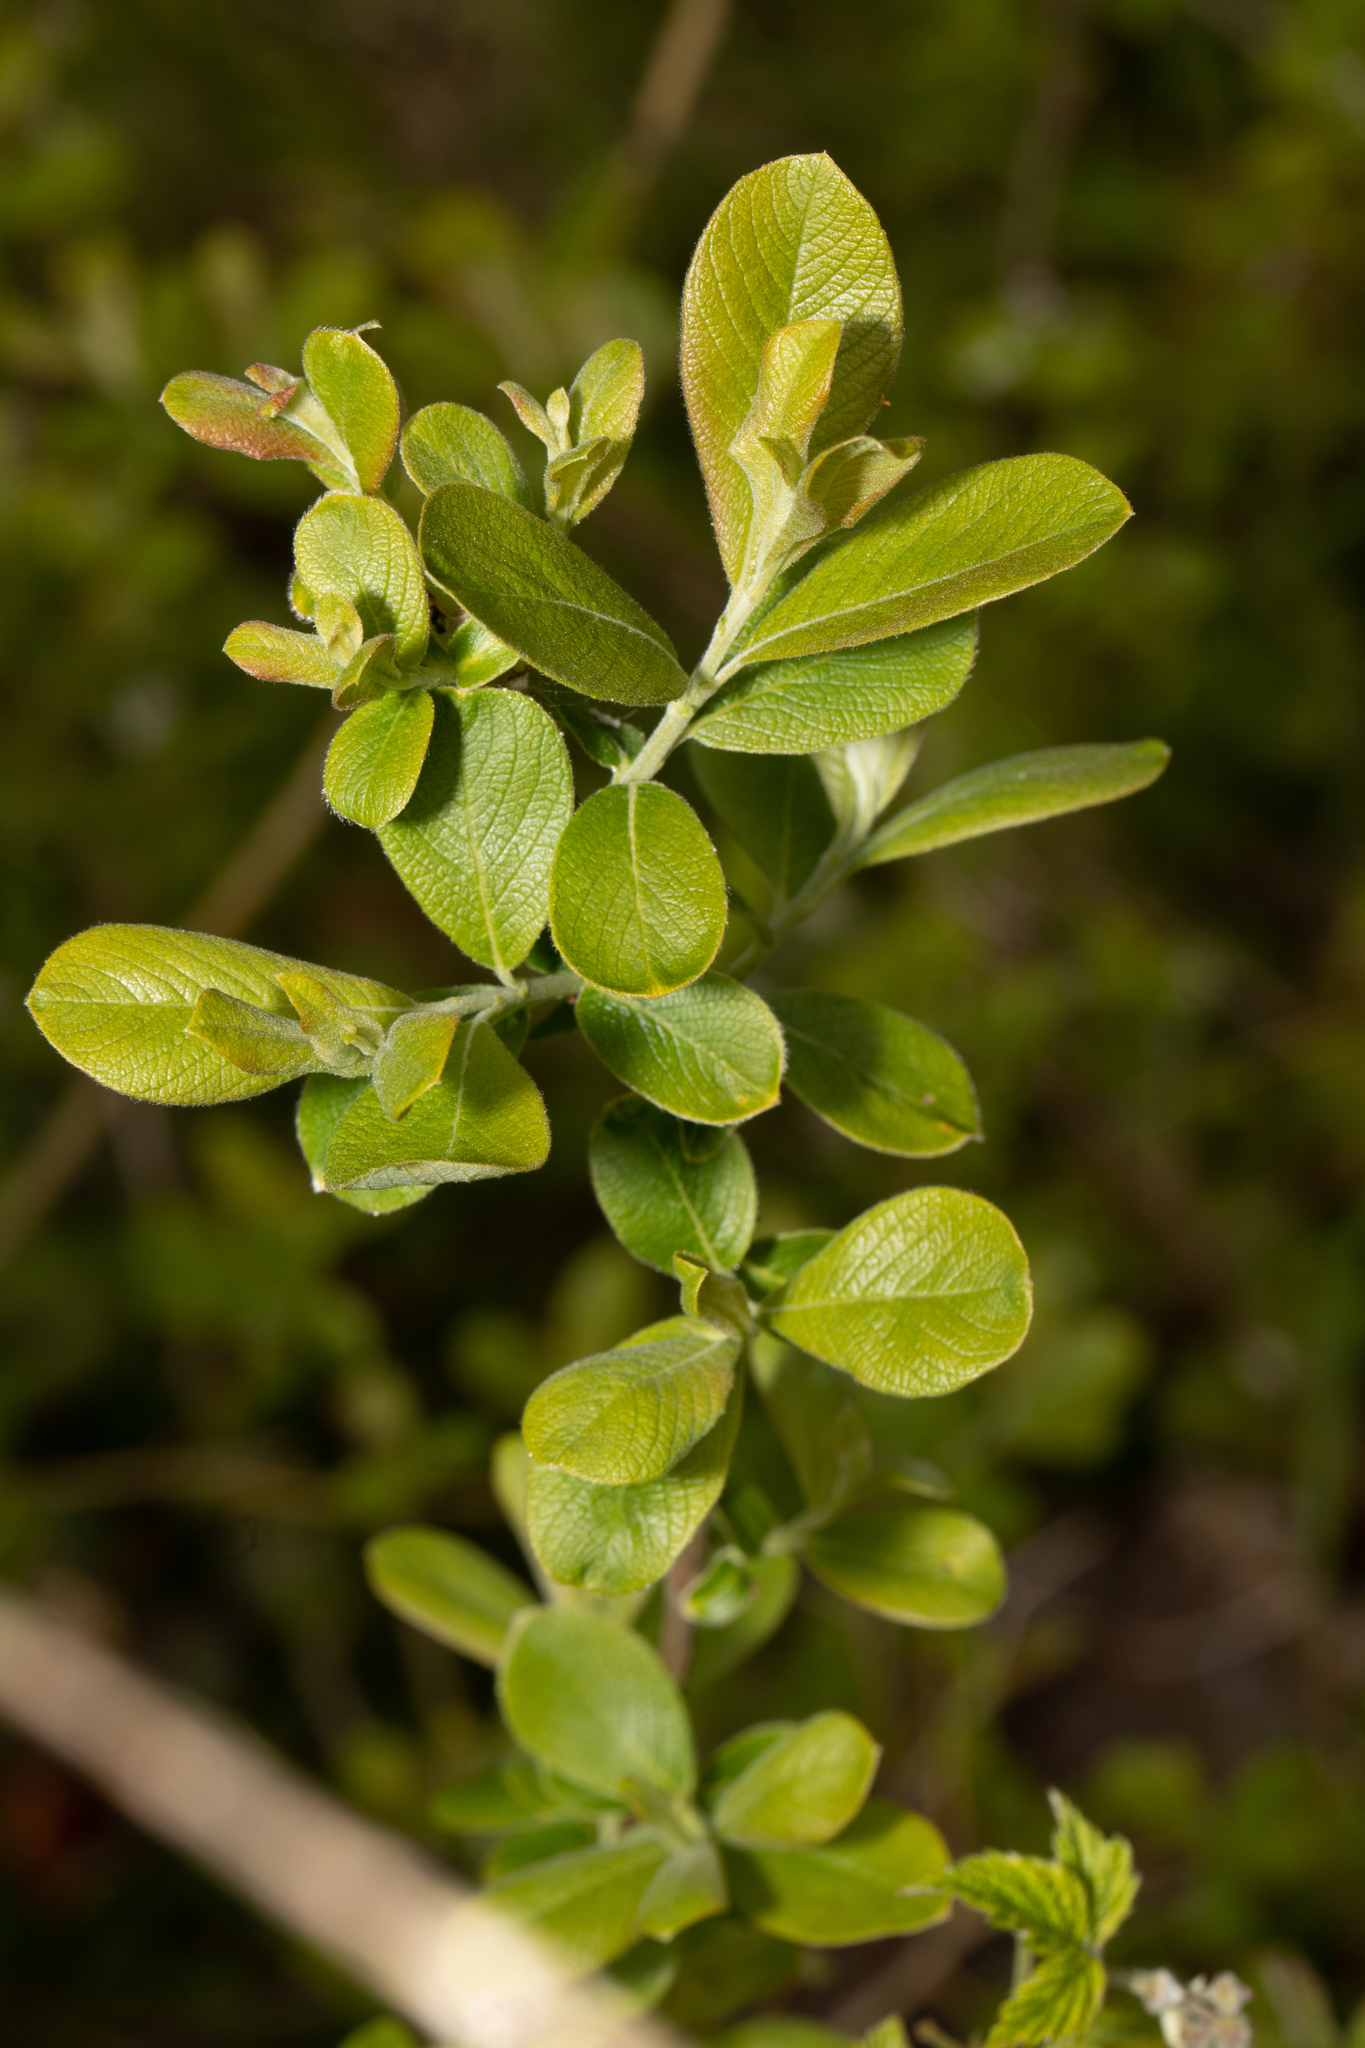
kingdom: Plantae
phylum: Tracheophyta
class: Magnoliopsida
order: Malpighiales
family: Salicaceae
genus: Salix
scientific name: Salix cinerea
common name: Common sallow
